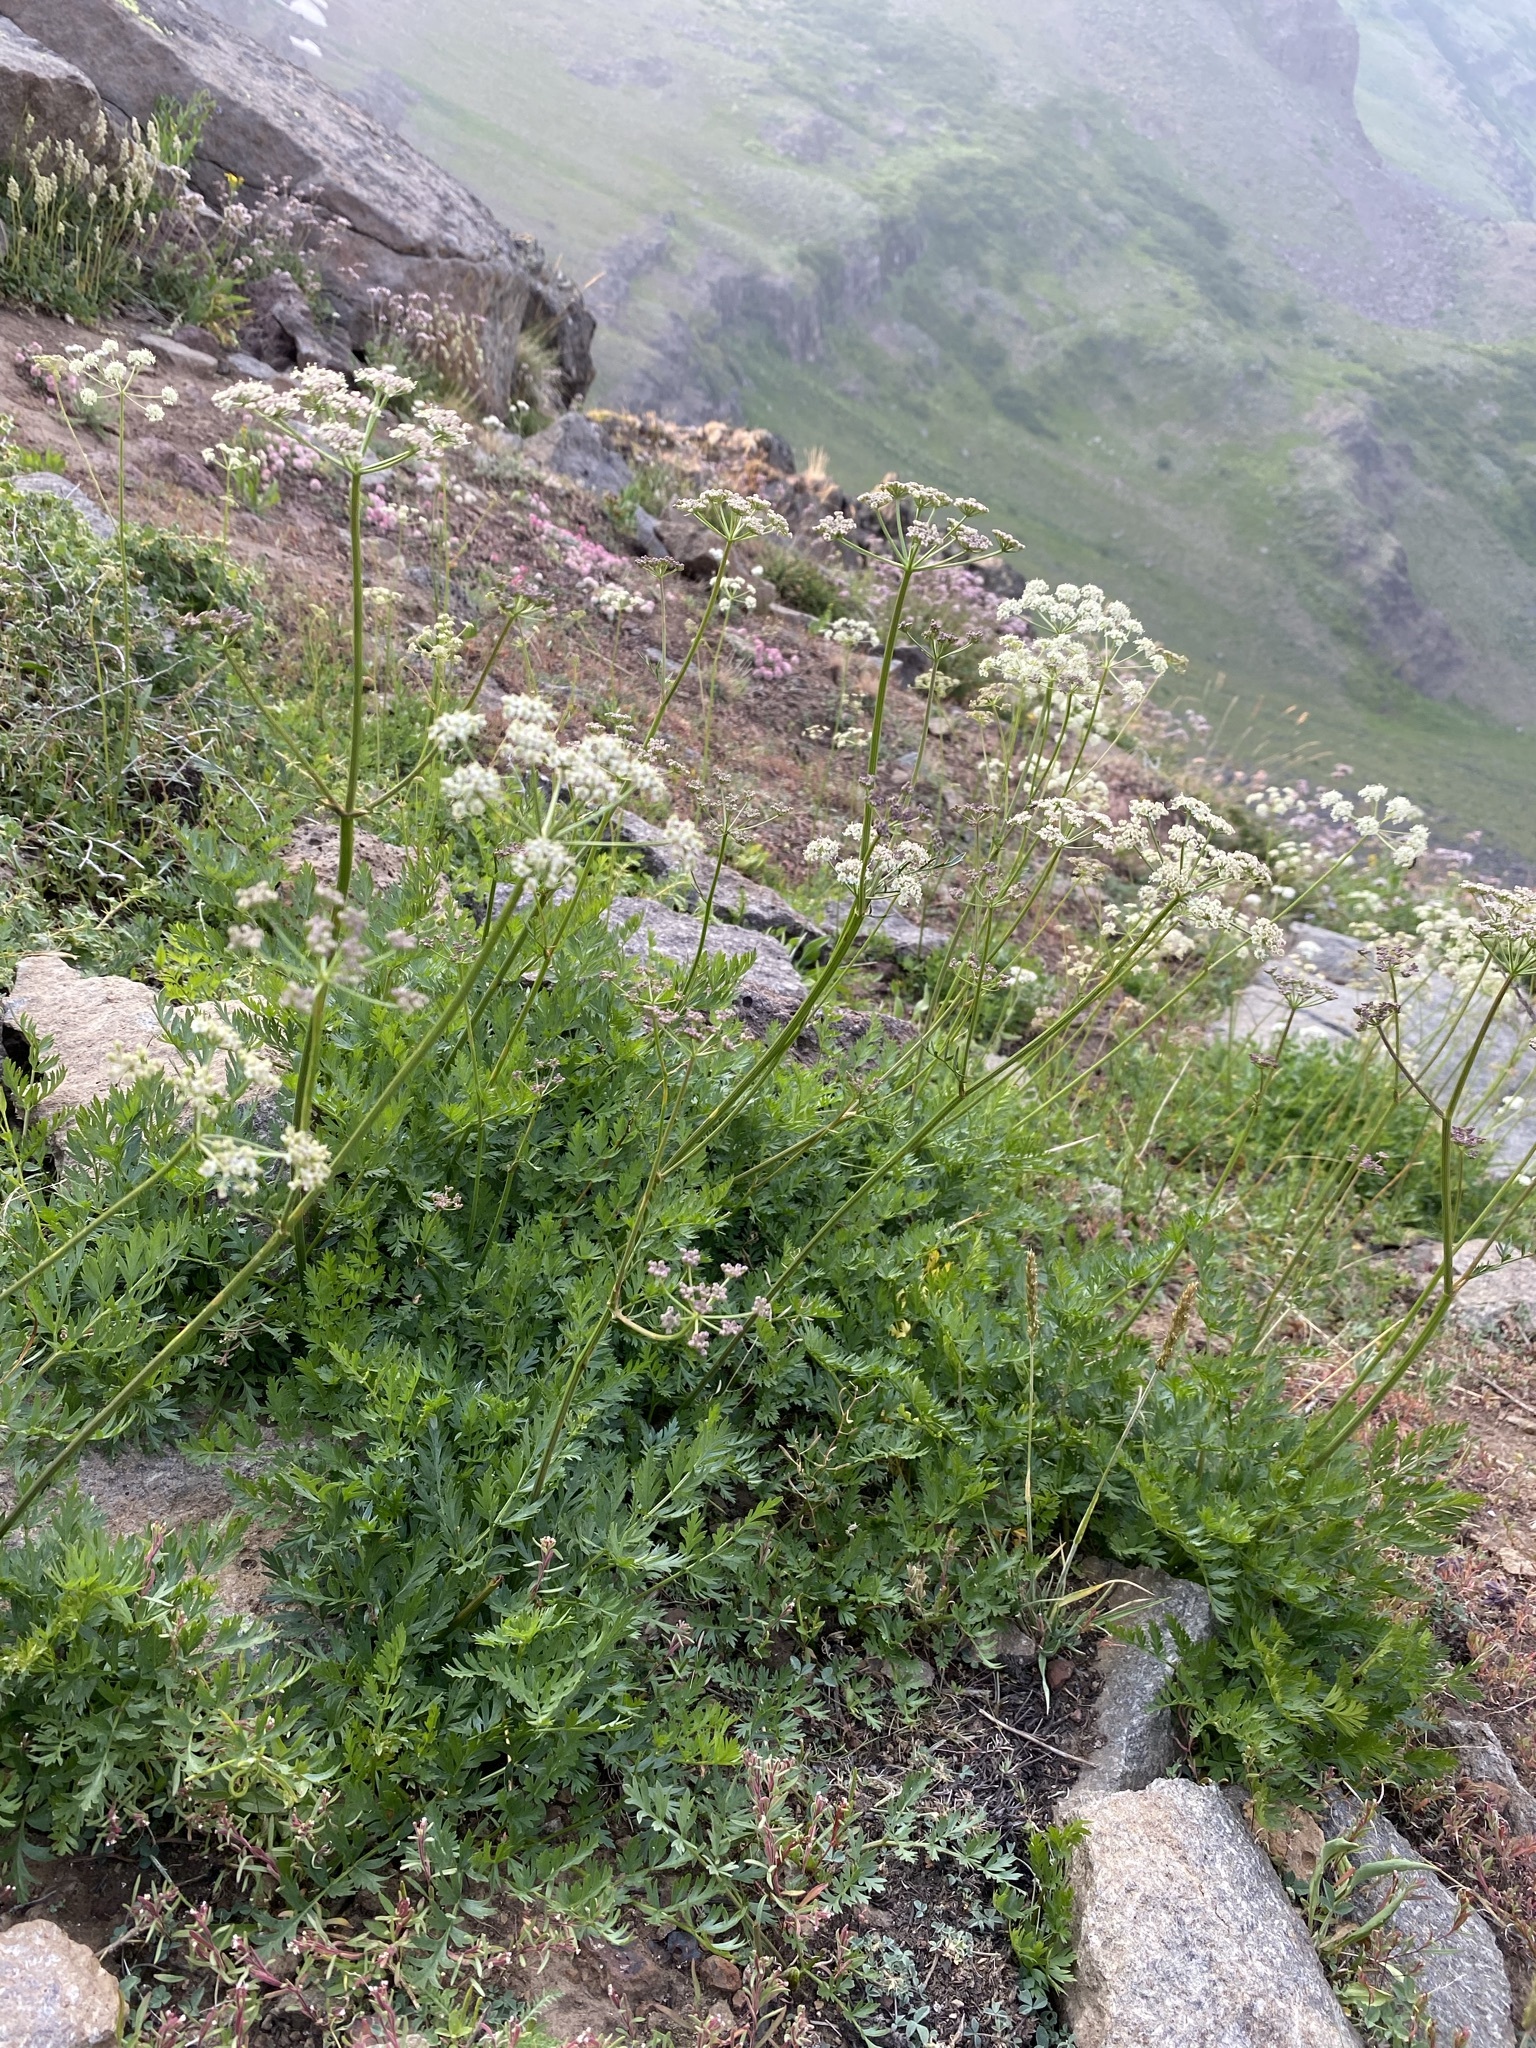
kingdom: Plantae
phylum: Tracheophyta
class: Magnoliopsida
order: Apiales
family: Apiaceae
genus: Ligusticum
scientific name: Ligusticum grayi
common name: Gray's licorice-root
